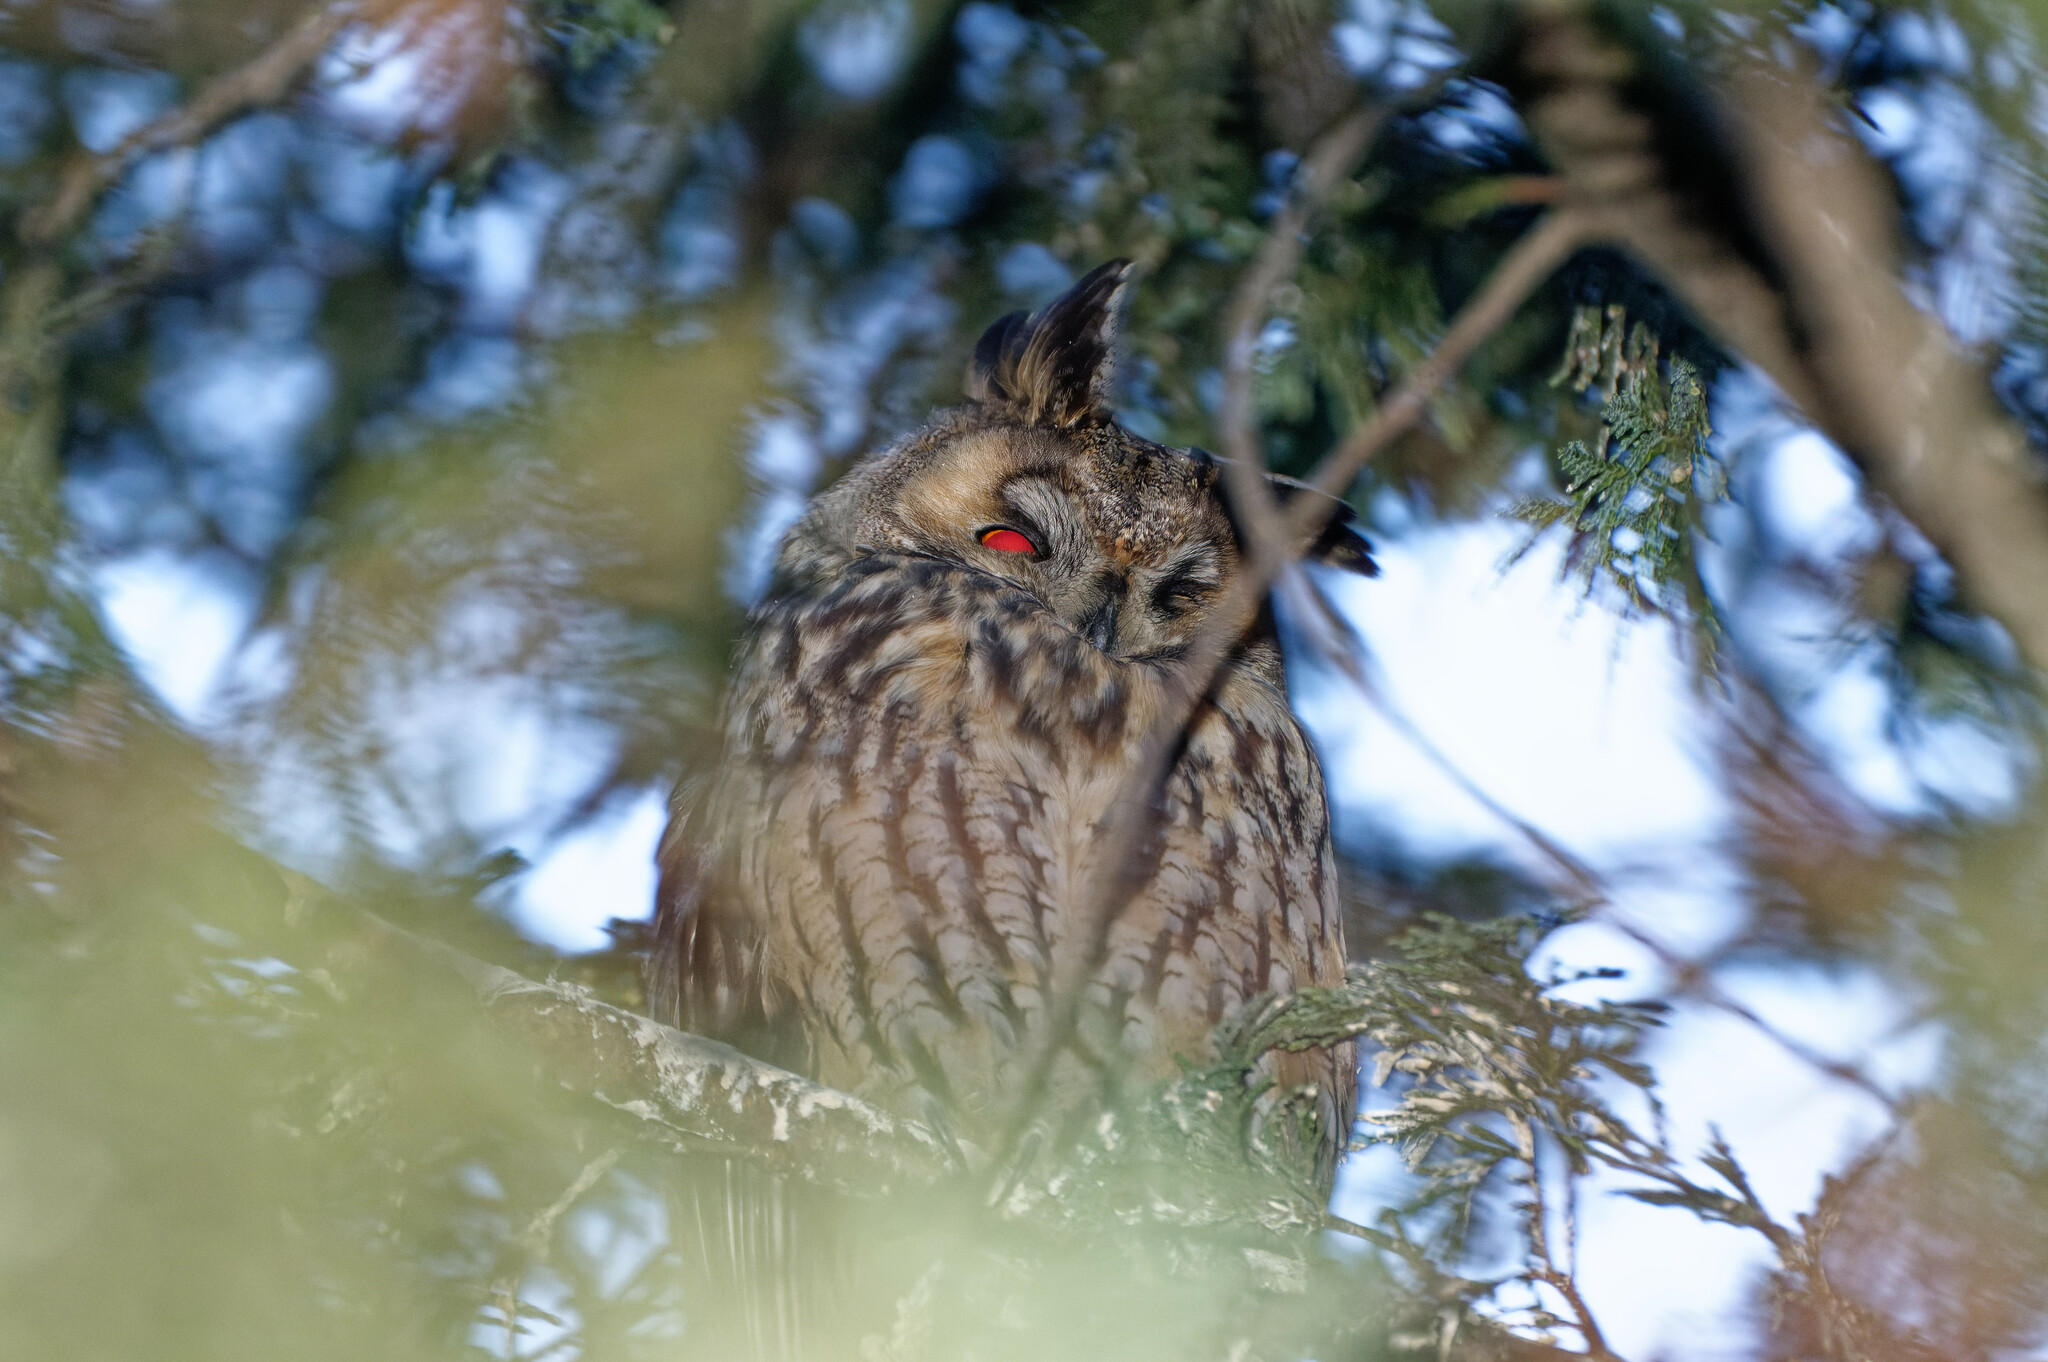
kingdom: Animalia
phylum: Chordata
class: Aves
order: Strigiformes
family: Strigidae
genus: Asio
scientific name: Asio otus
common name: Long-eared owl
